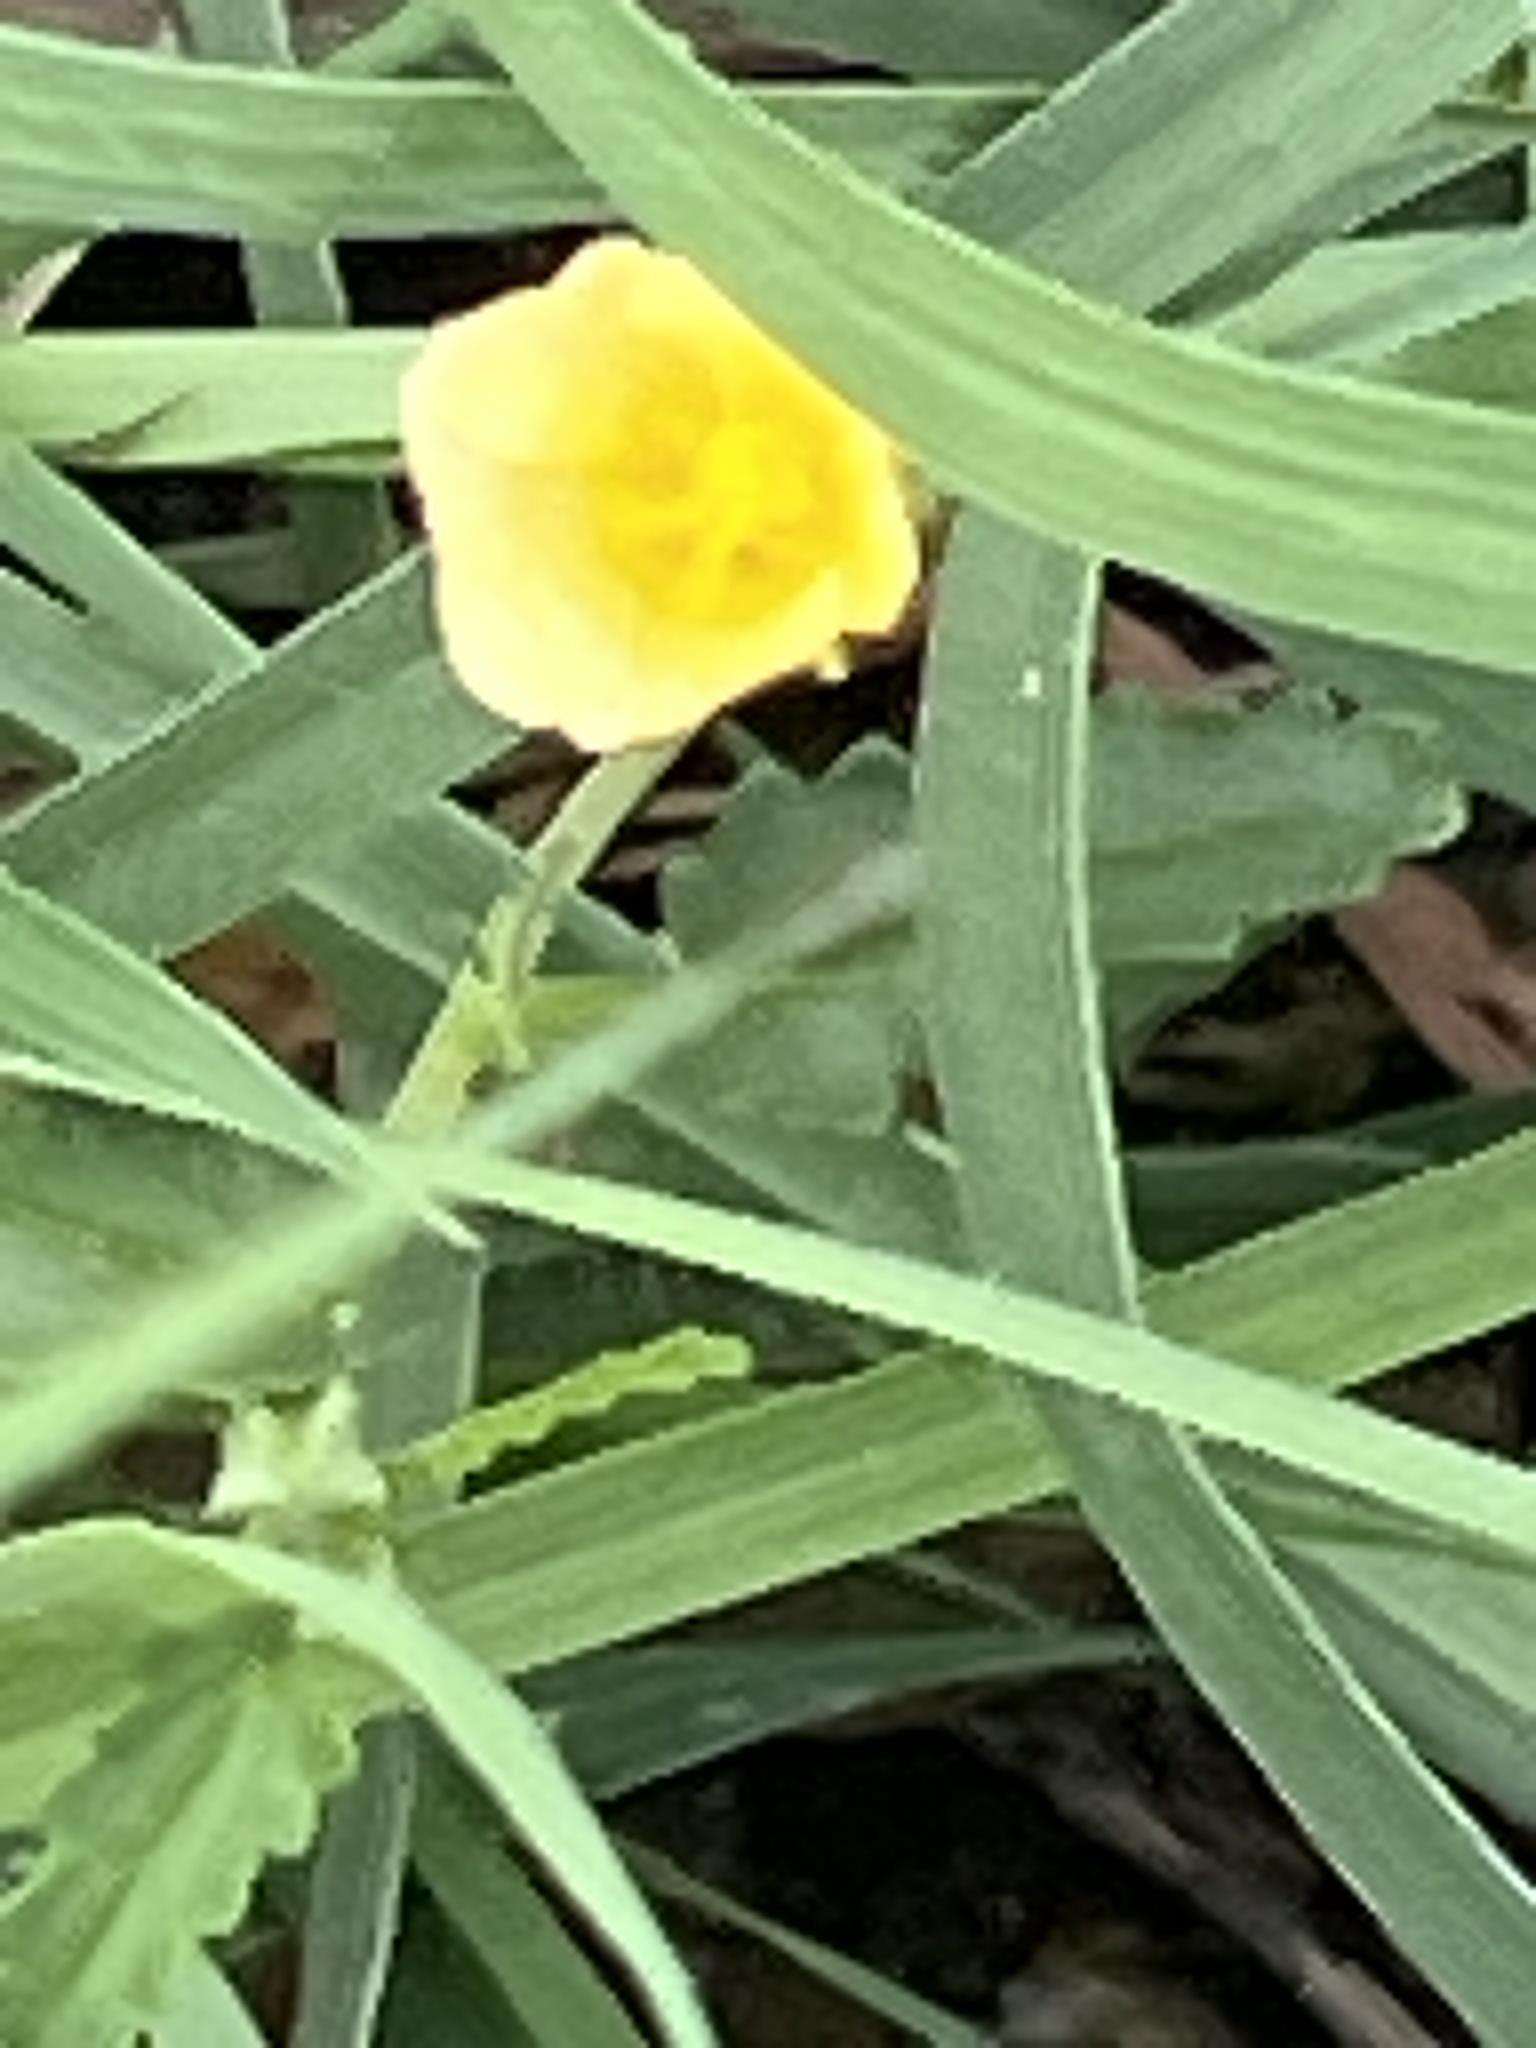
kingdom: Plantae
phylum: Tracheophyta
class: Magnoliopsida
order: Malvales
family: Malvaceae
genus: Sida
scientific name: Sida abutilifolia
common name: Spreading fanpetals
